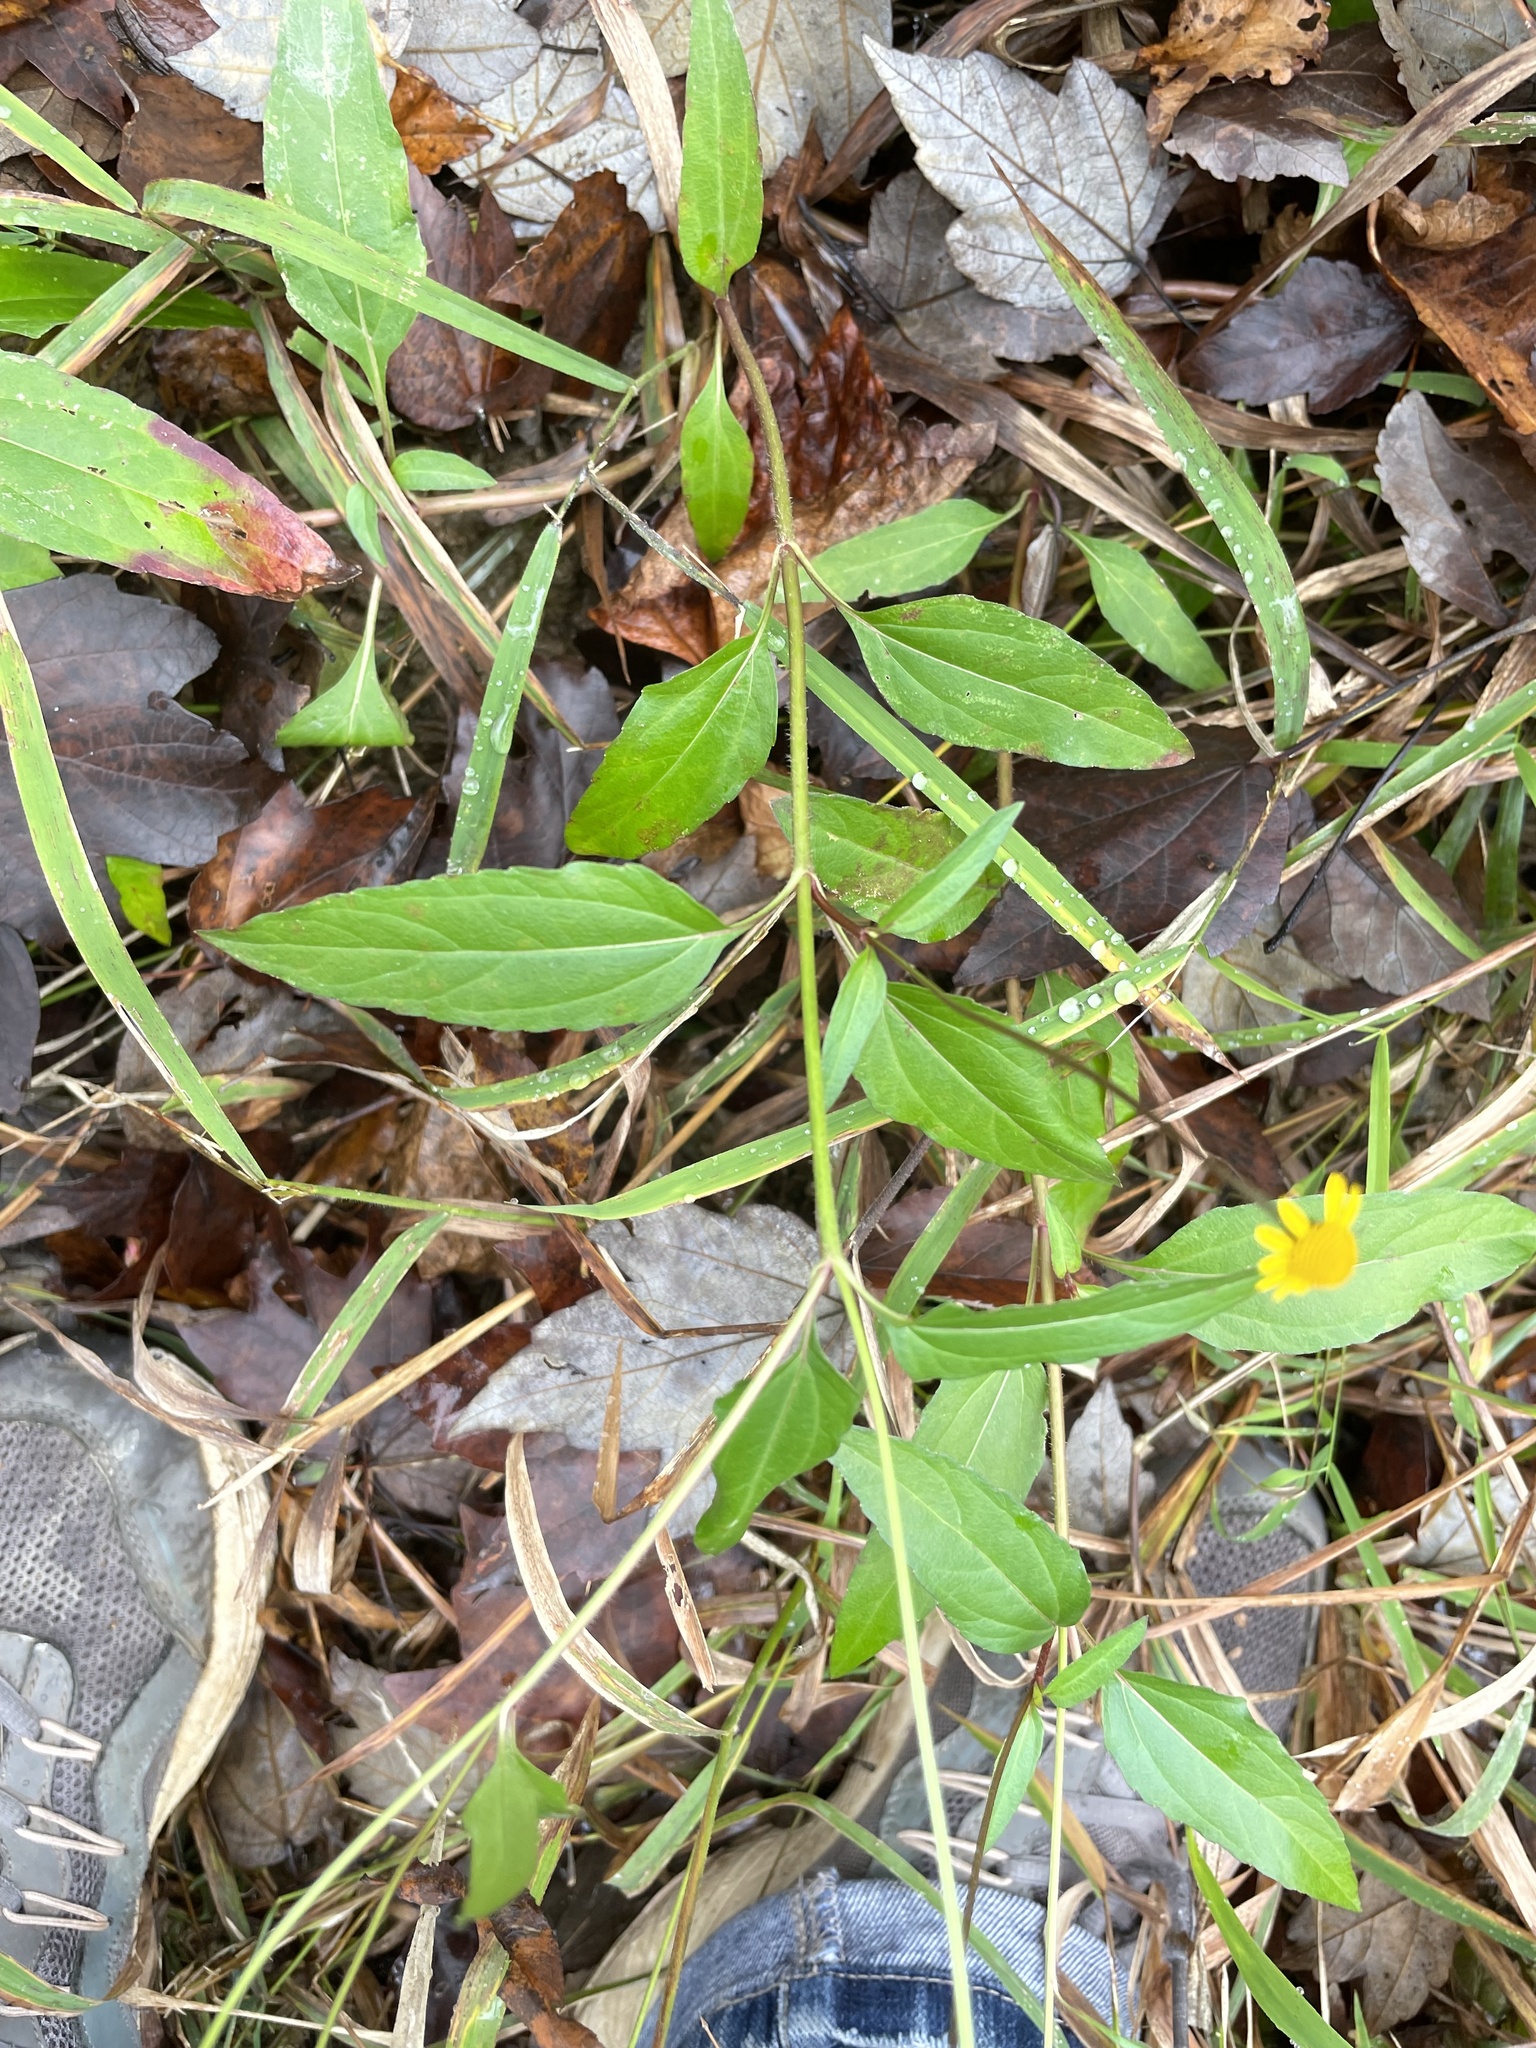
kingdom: Plantae
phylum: Tracheophyta
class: Magnoliopsida
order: Asterales
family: Asteraceae
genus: Acmella
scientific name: Acmella repens
